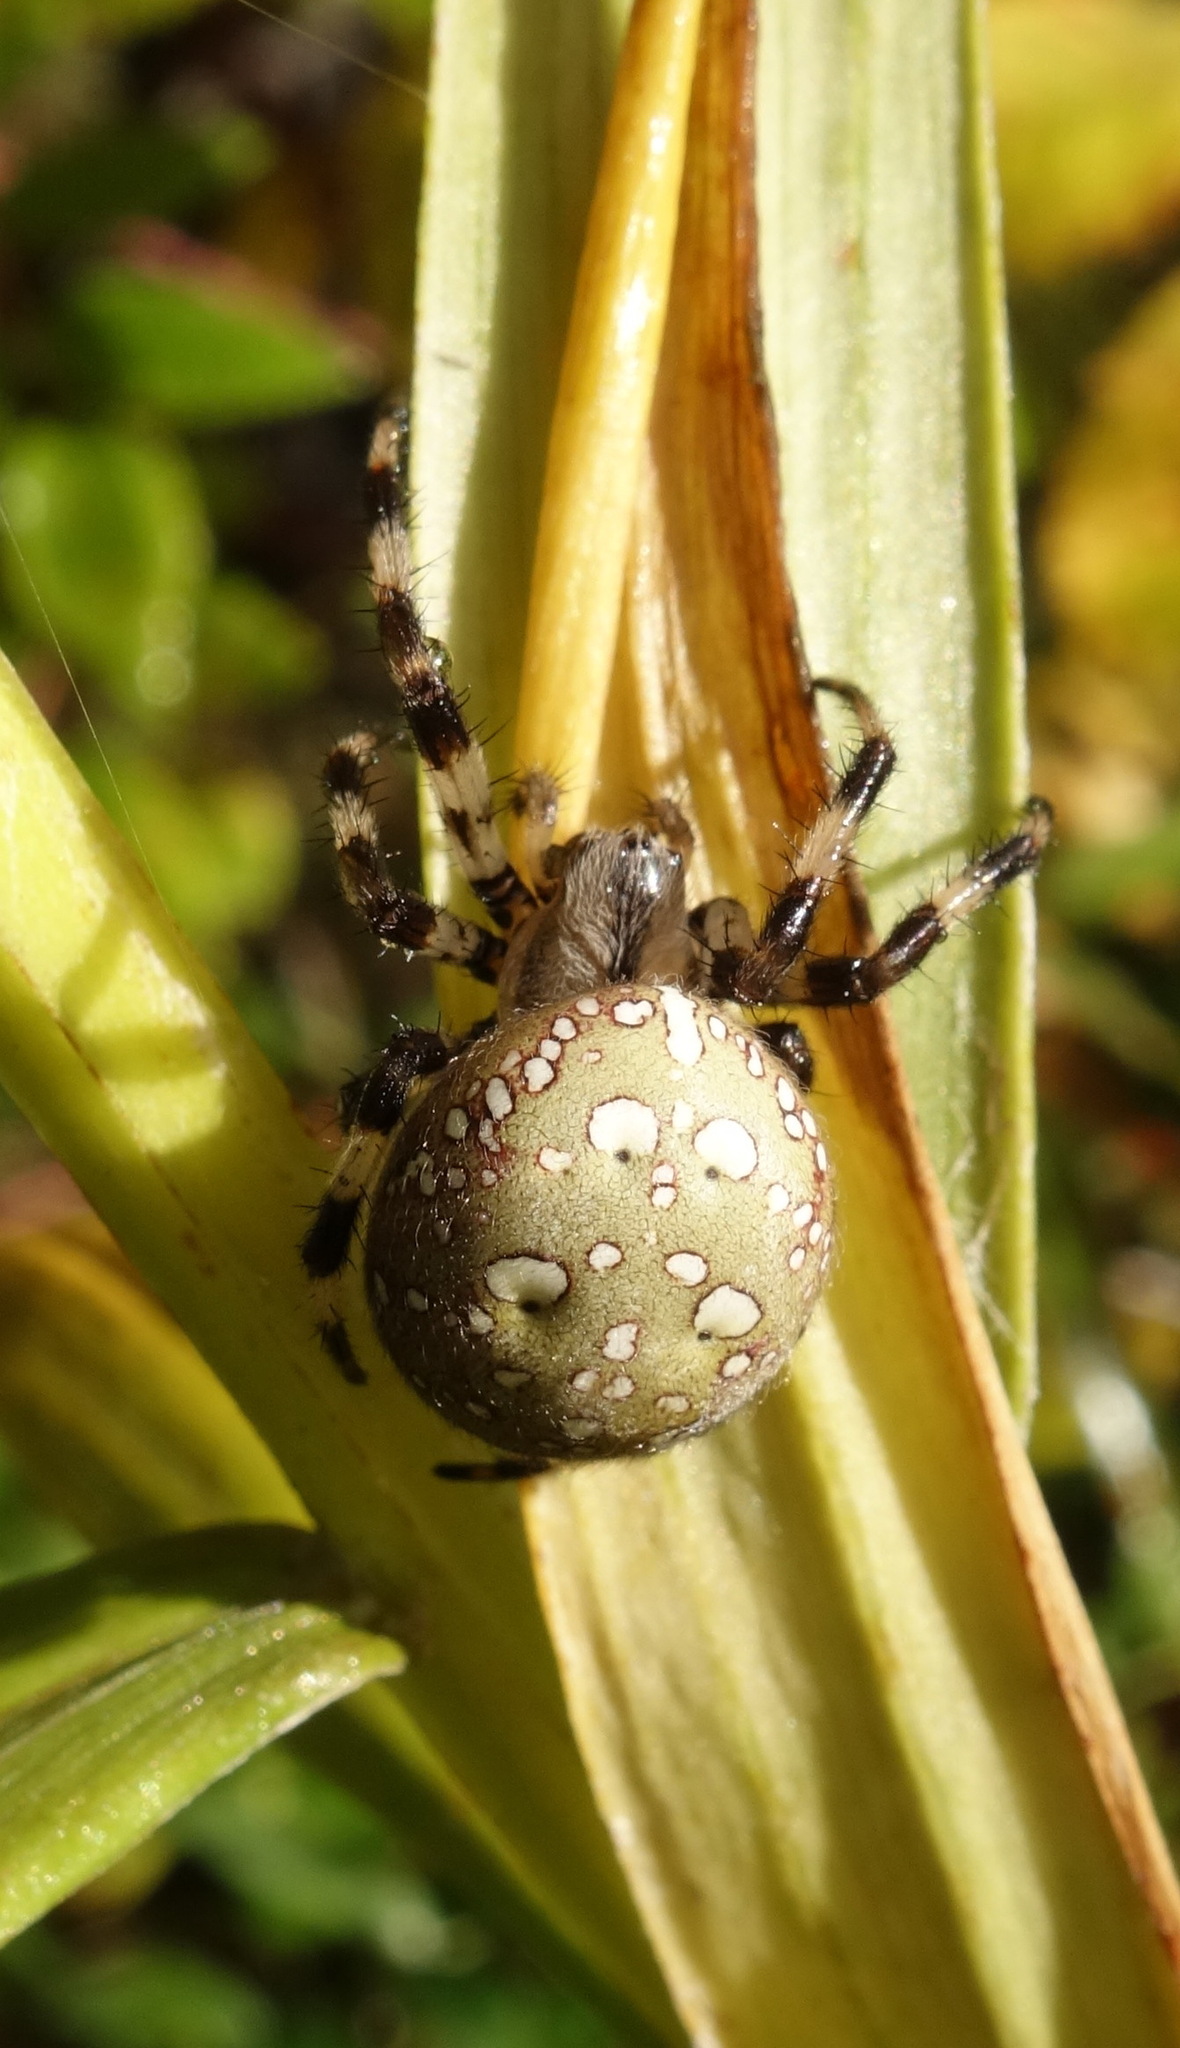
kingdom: Animalia
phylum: Arthropoda
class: Arachnida
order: Araneae
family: Araneidae
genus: Araneus
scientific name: Araneus quadratus
